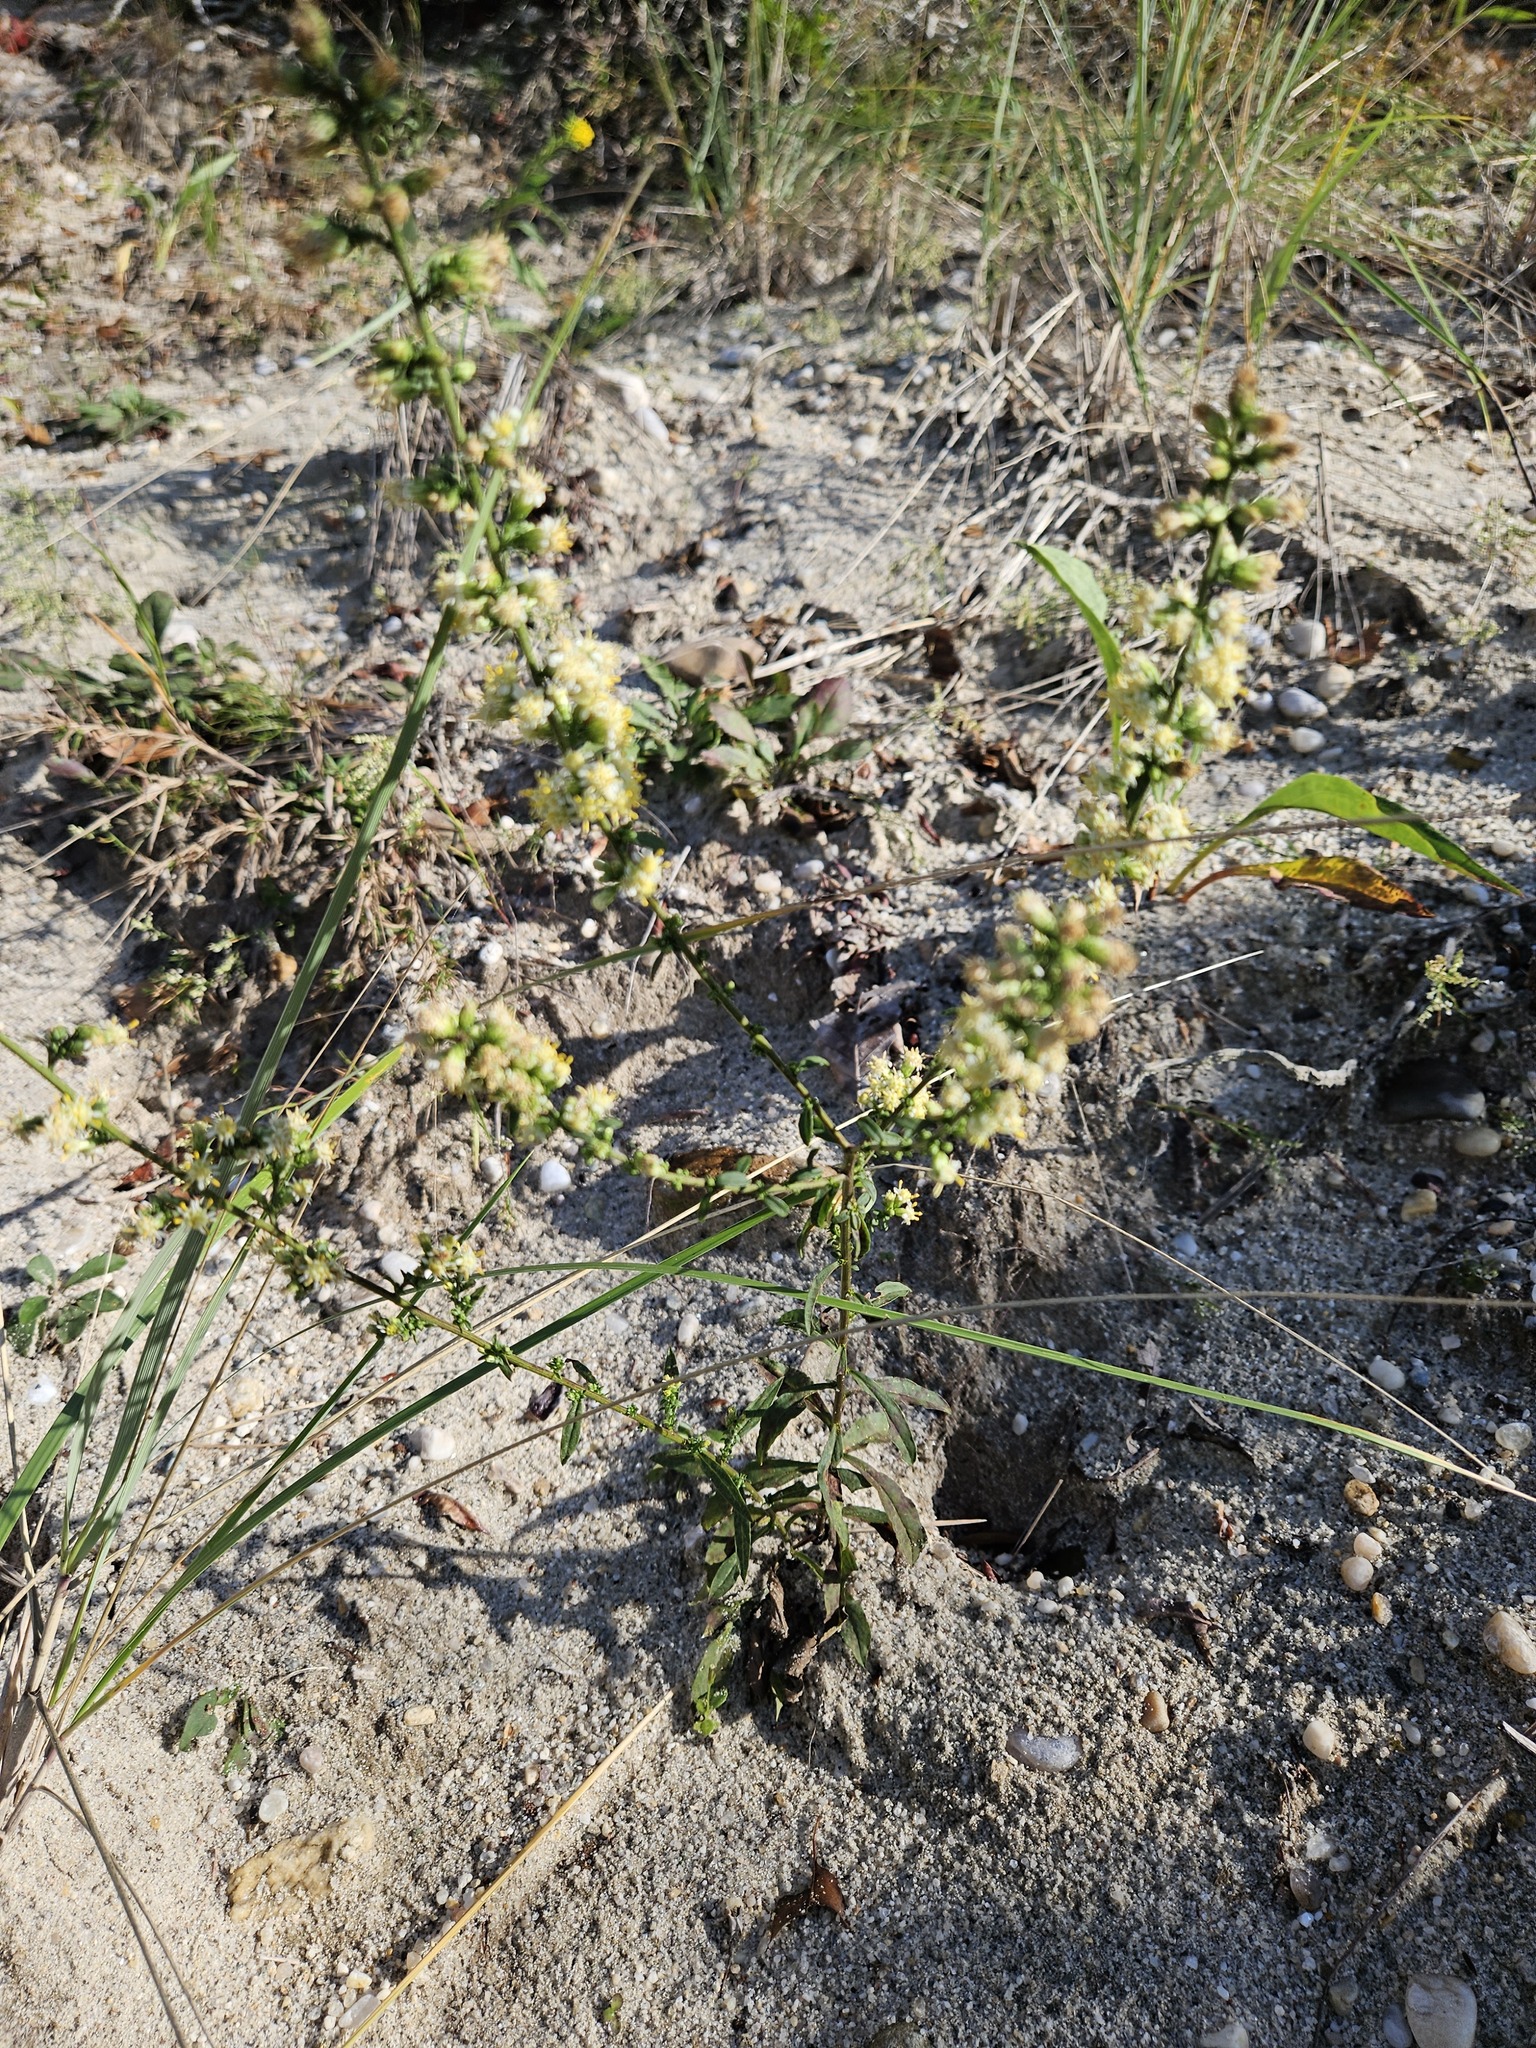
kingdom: Plantae
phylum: Tracheophyta
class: Magnoliopsida
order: Asterales
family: Asteraceae
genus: Solidago
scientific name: Solidago bicolor
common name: Silverrod
